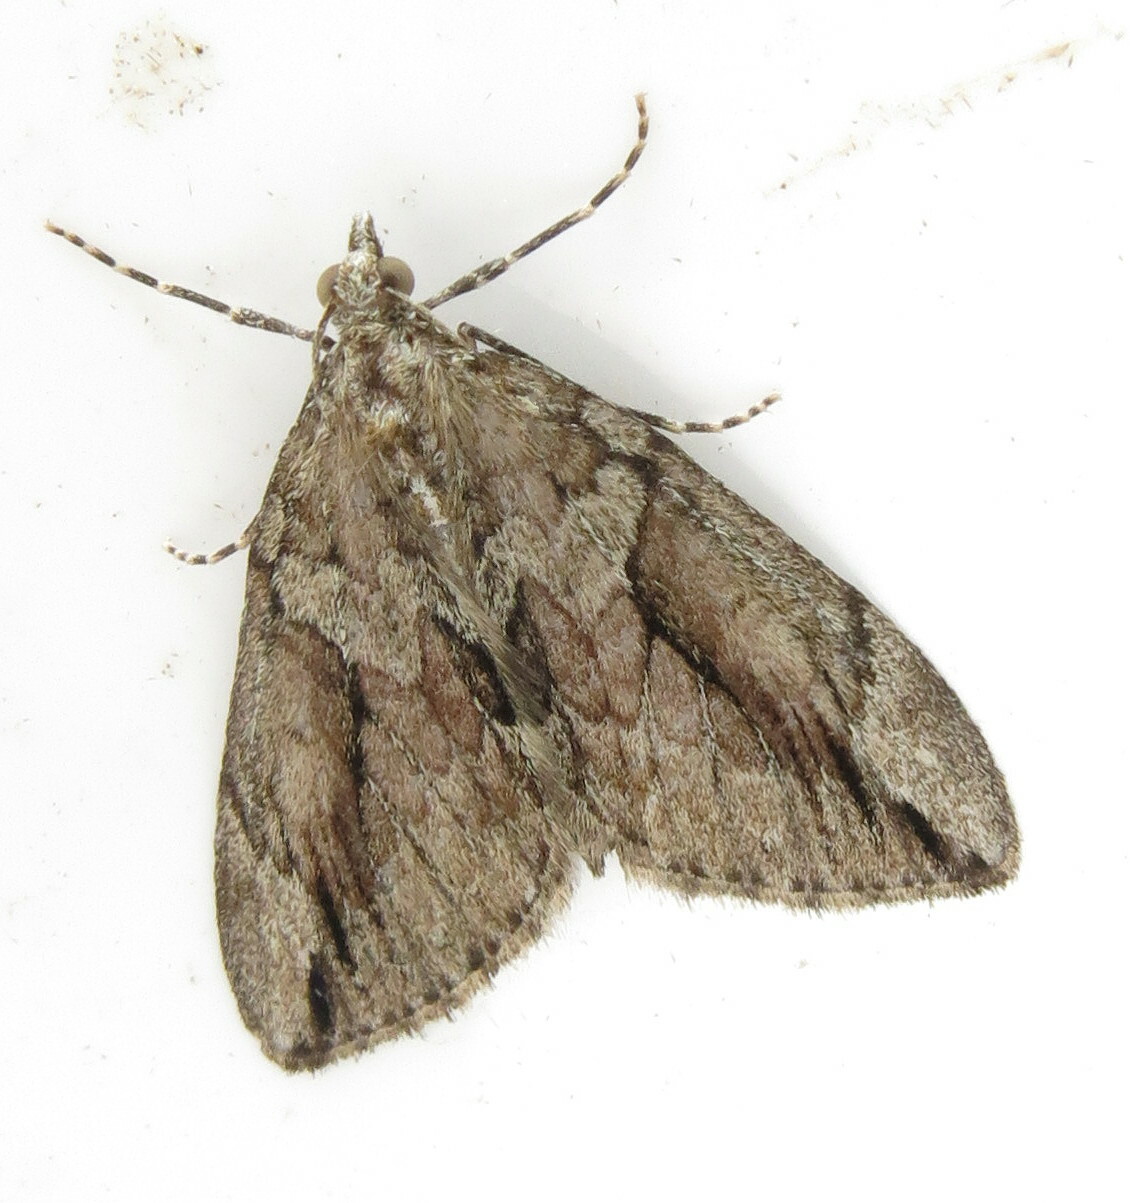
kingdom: Animalia
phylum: Arthropoda
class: Insecta
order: Lepidoptera
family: Geometridae
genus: Thera
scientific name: Thera cupressata
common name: Cypress carpet
